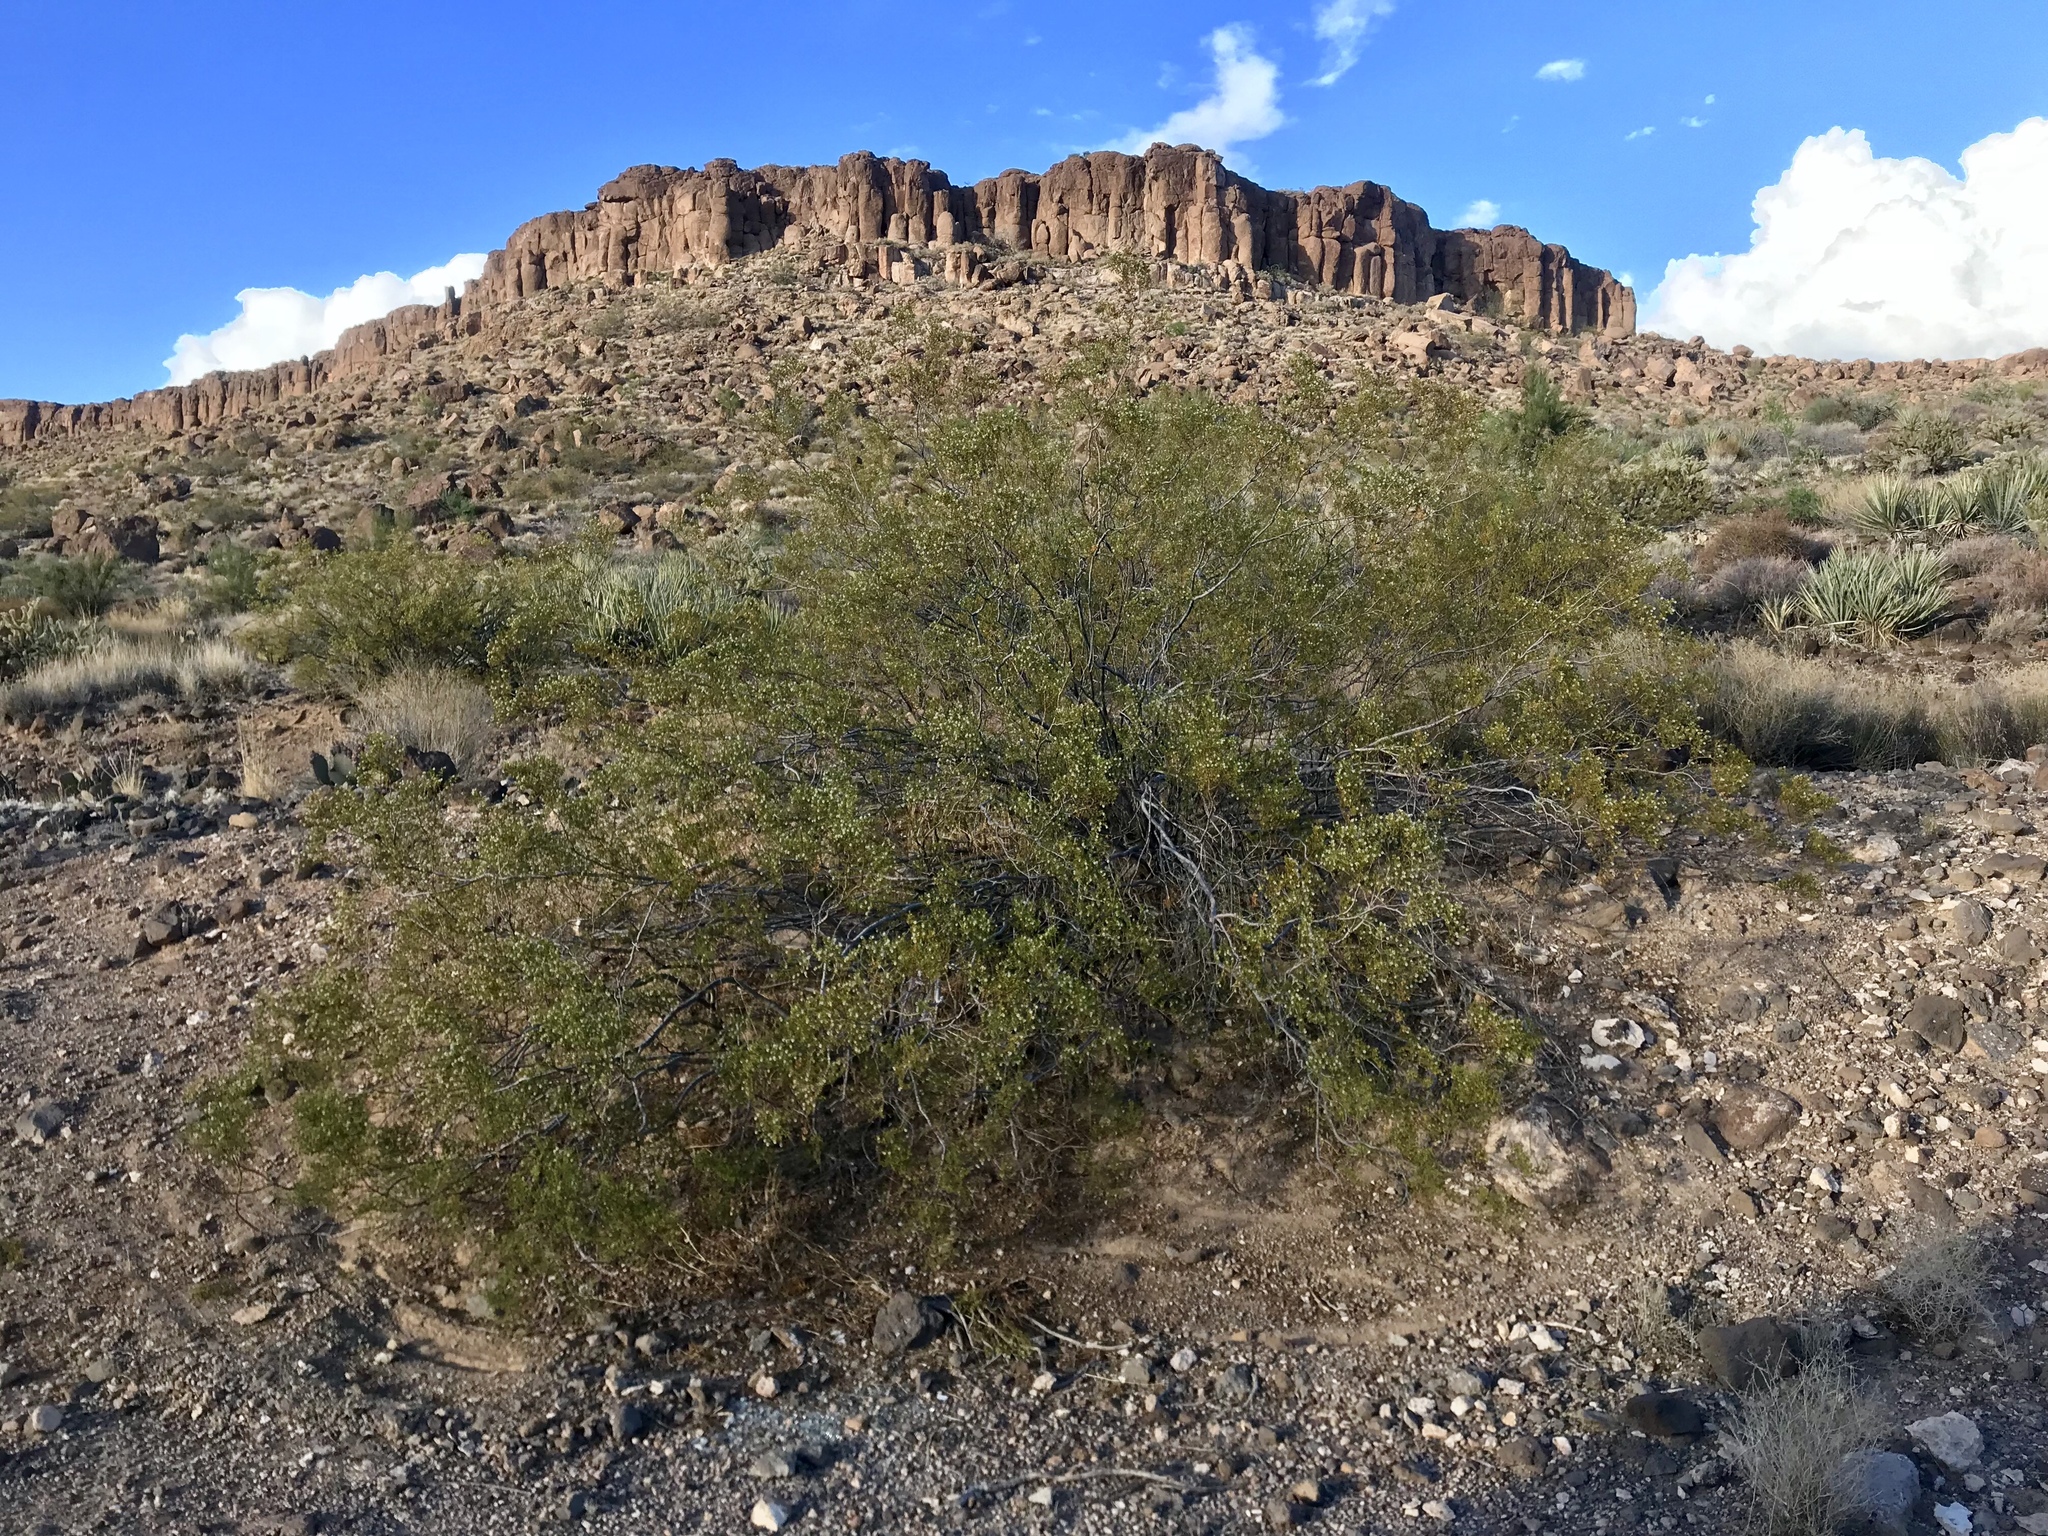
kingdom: Plantae
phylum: Tracheophyta
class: Magnoliopsida
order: Zygophyllales
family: Zygophyllaceae
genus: Larrea
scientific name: Larrea tridentata
